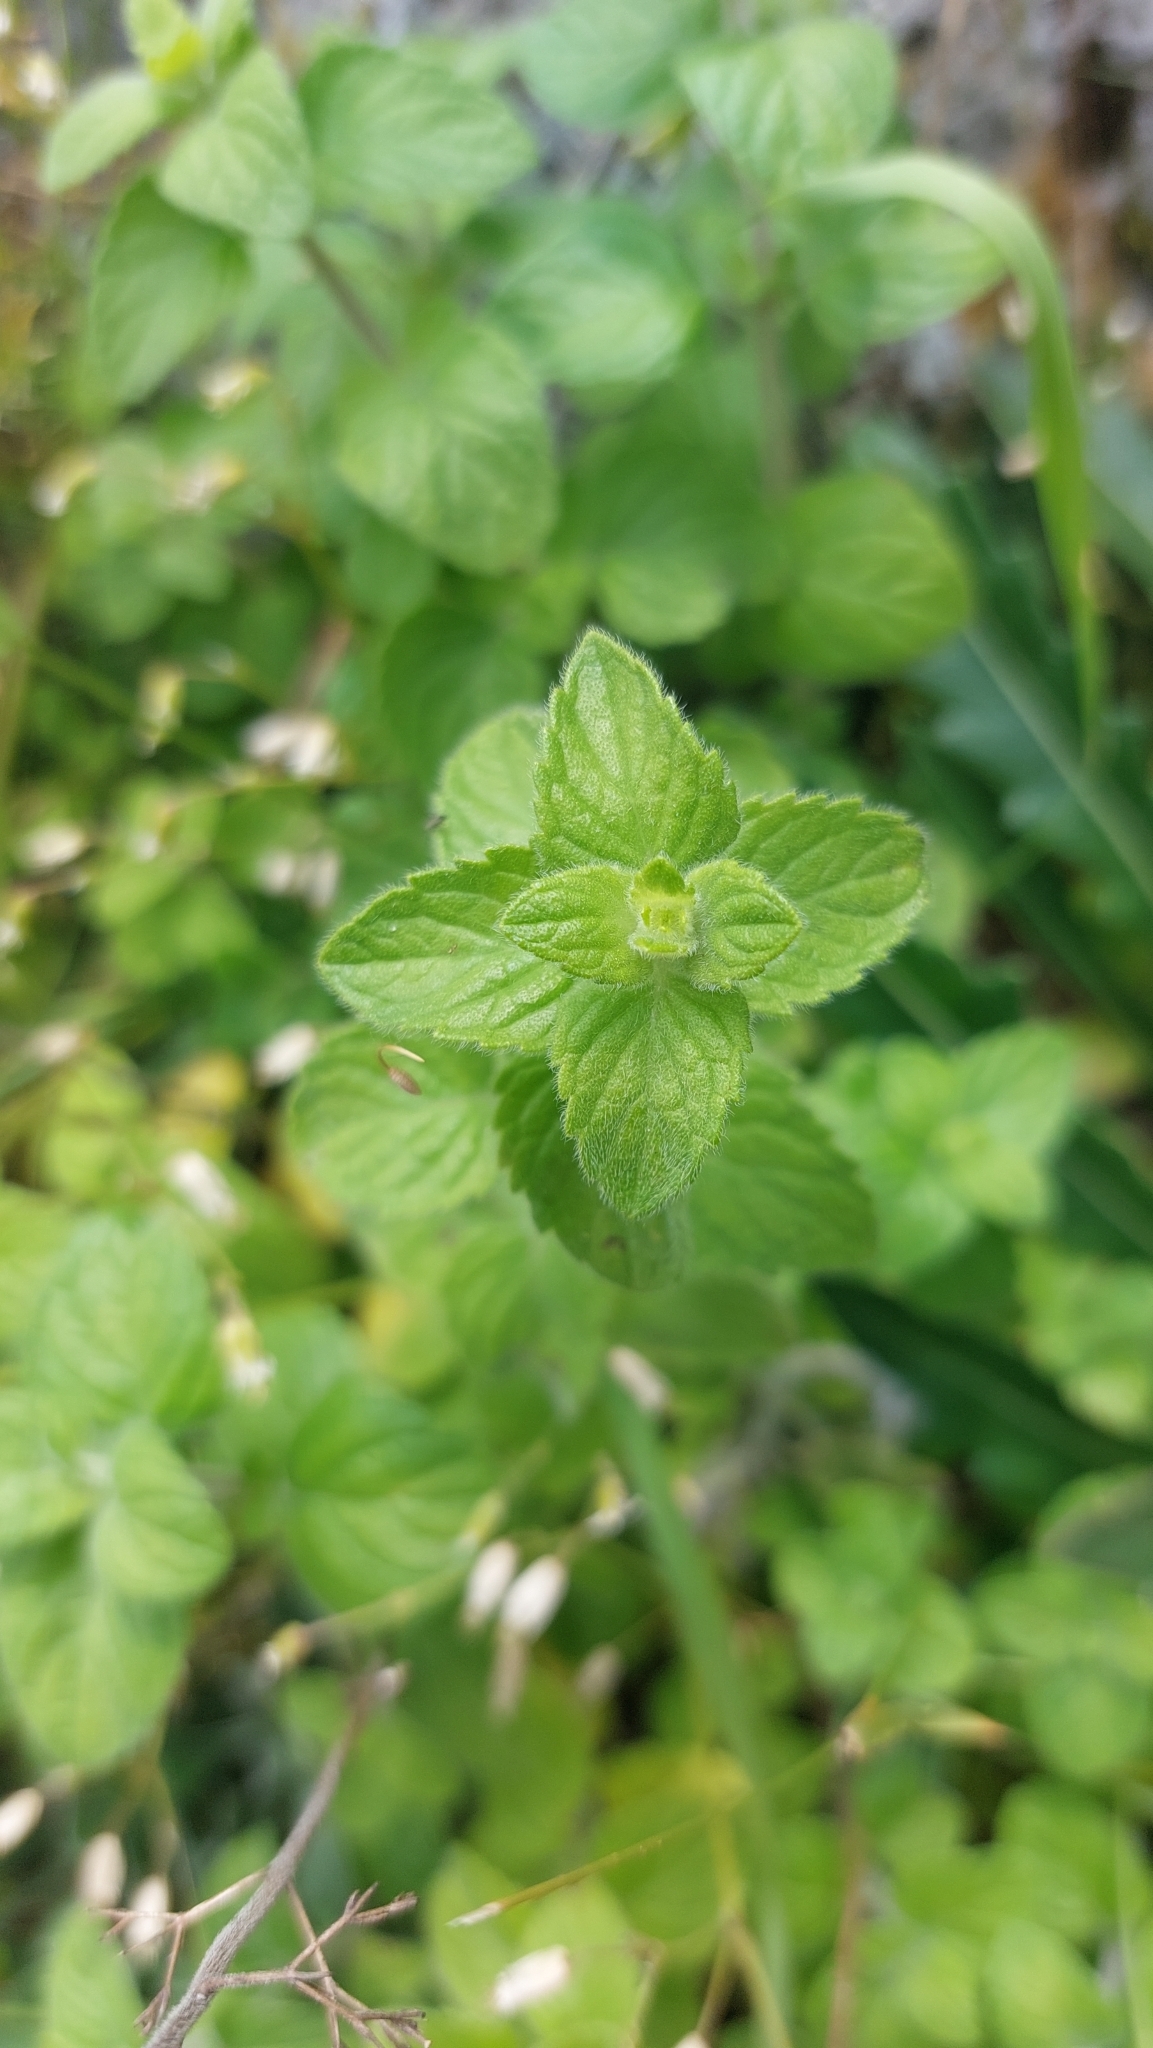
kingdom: Plantae
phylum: Tracheophyta
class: Magnoliopsida
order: Lamiales
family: Lamiaceae
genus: Clinopodium
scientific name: Clinopodium nepeta
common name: Lesser calamint
